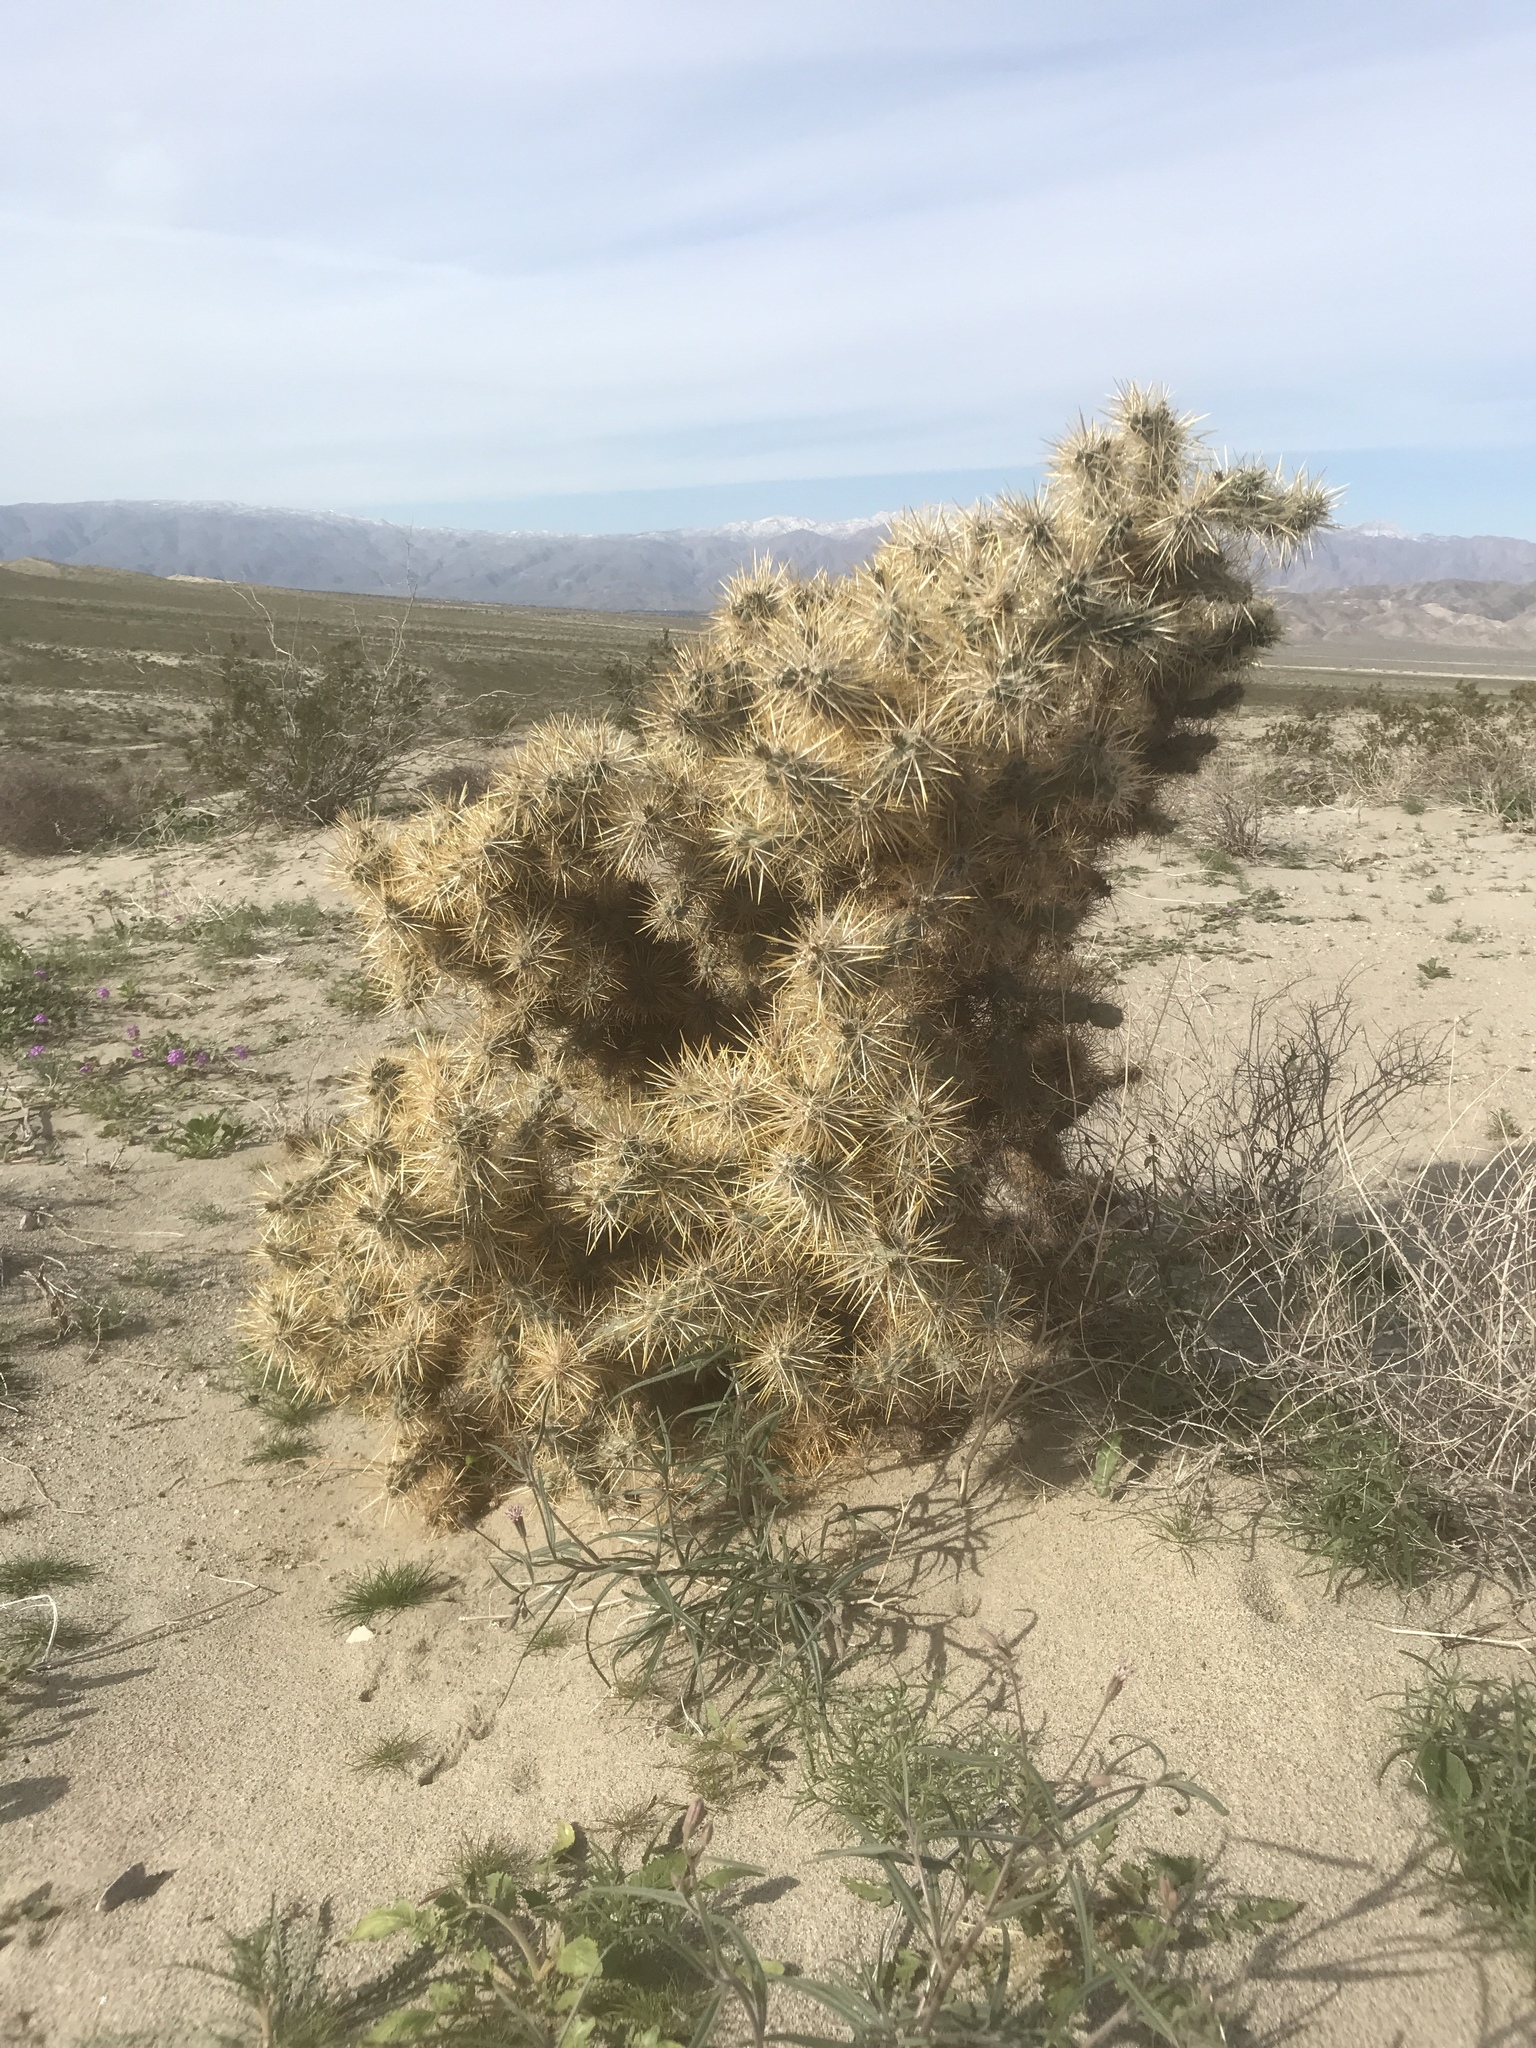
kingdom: Plantae
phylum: Tracheophyta
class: Magnoliopsida
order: Caryophyllales
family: Cactaceae
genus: Cylindropuntia
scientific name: Cylindropuntia echinocarpa
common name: Ground cholla
